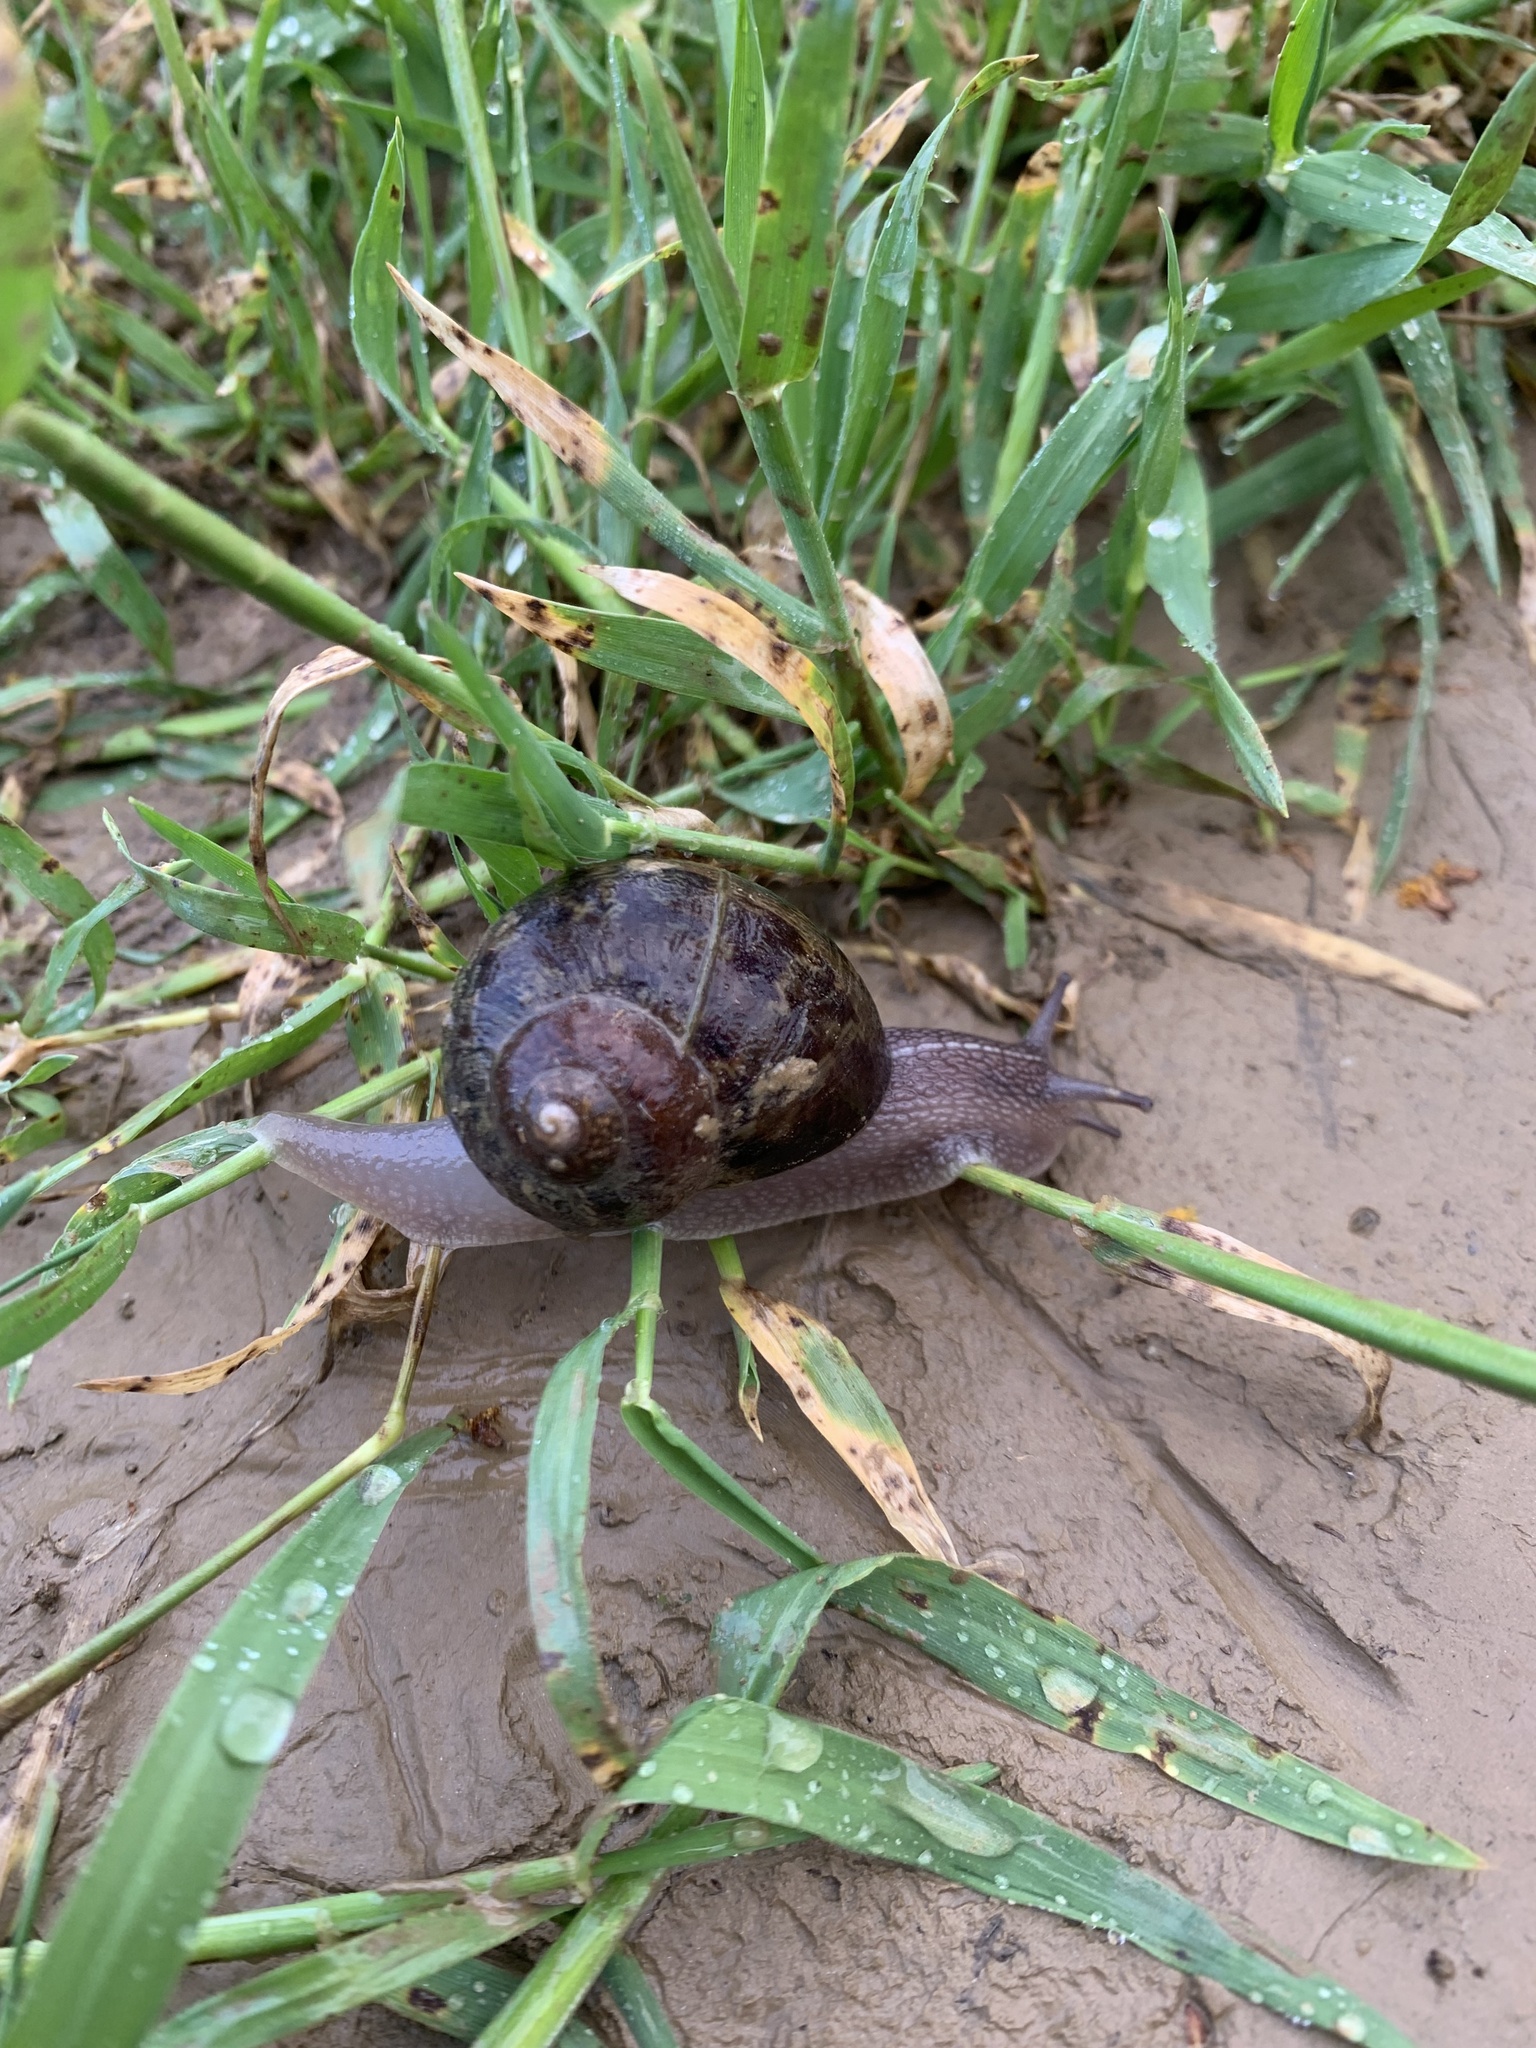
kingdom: Animalia
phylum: Mollusca
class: Gastropoda
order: Stylommatophora
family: Helicidae
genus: Cornu
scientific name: Cornu aspersum
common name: Brown garden snail
